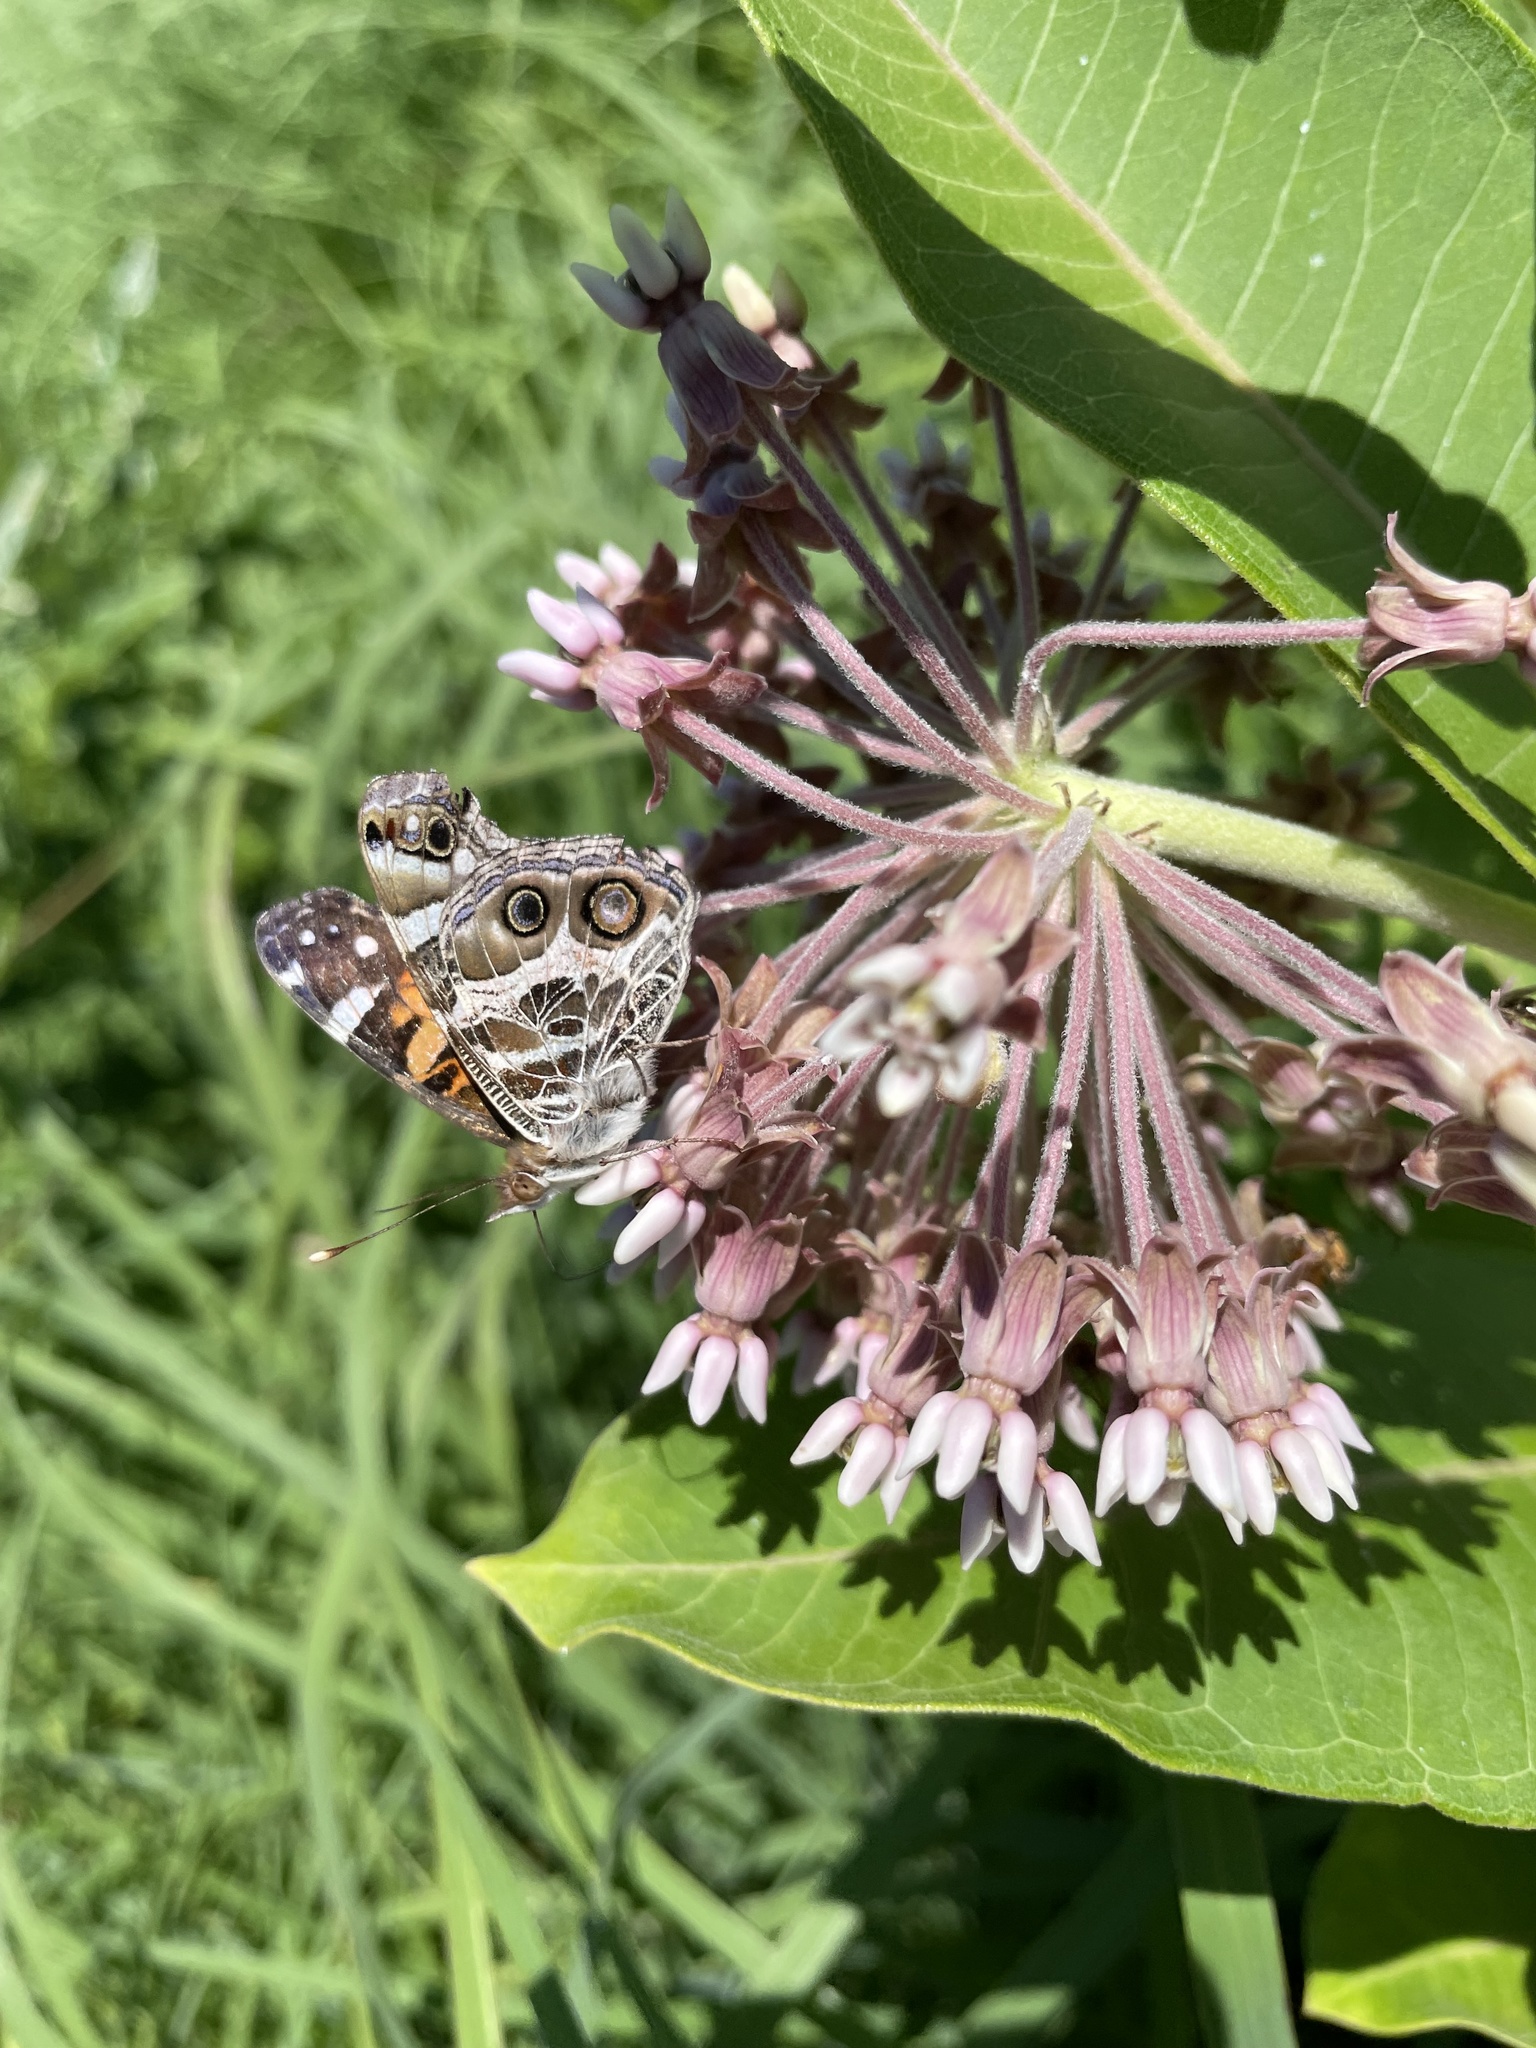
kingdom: Animalia
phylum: Arthropoda
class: Insecta
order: Lepidoptera
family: Nymphalidae
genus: Vanessa
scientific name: Vanessa virginiensis
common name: American lady
